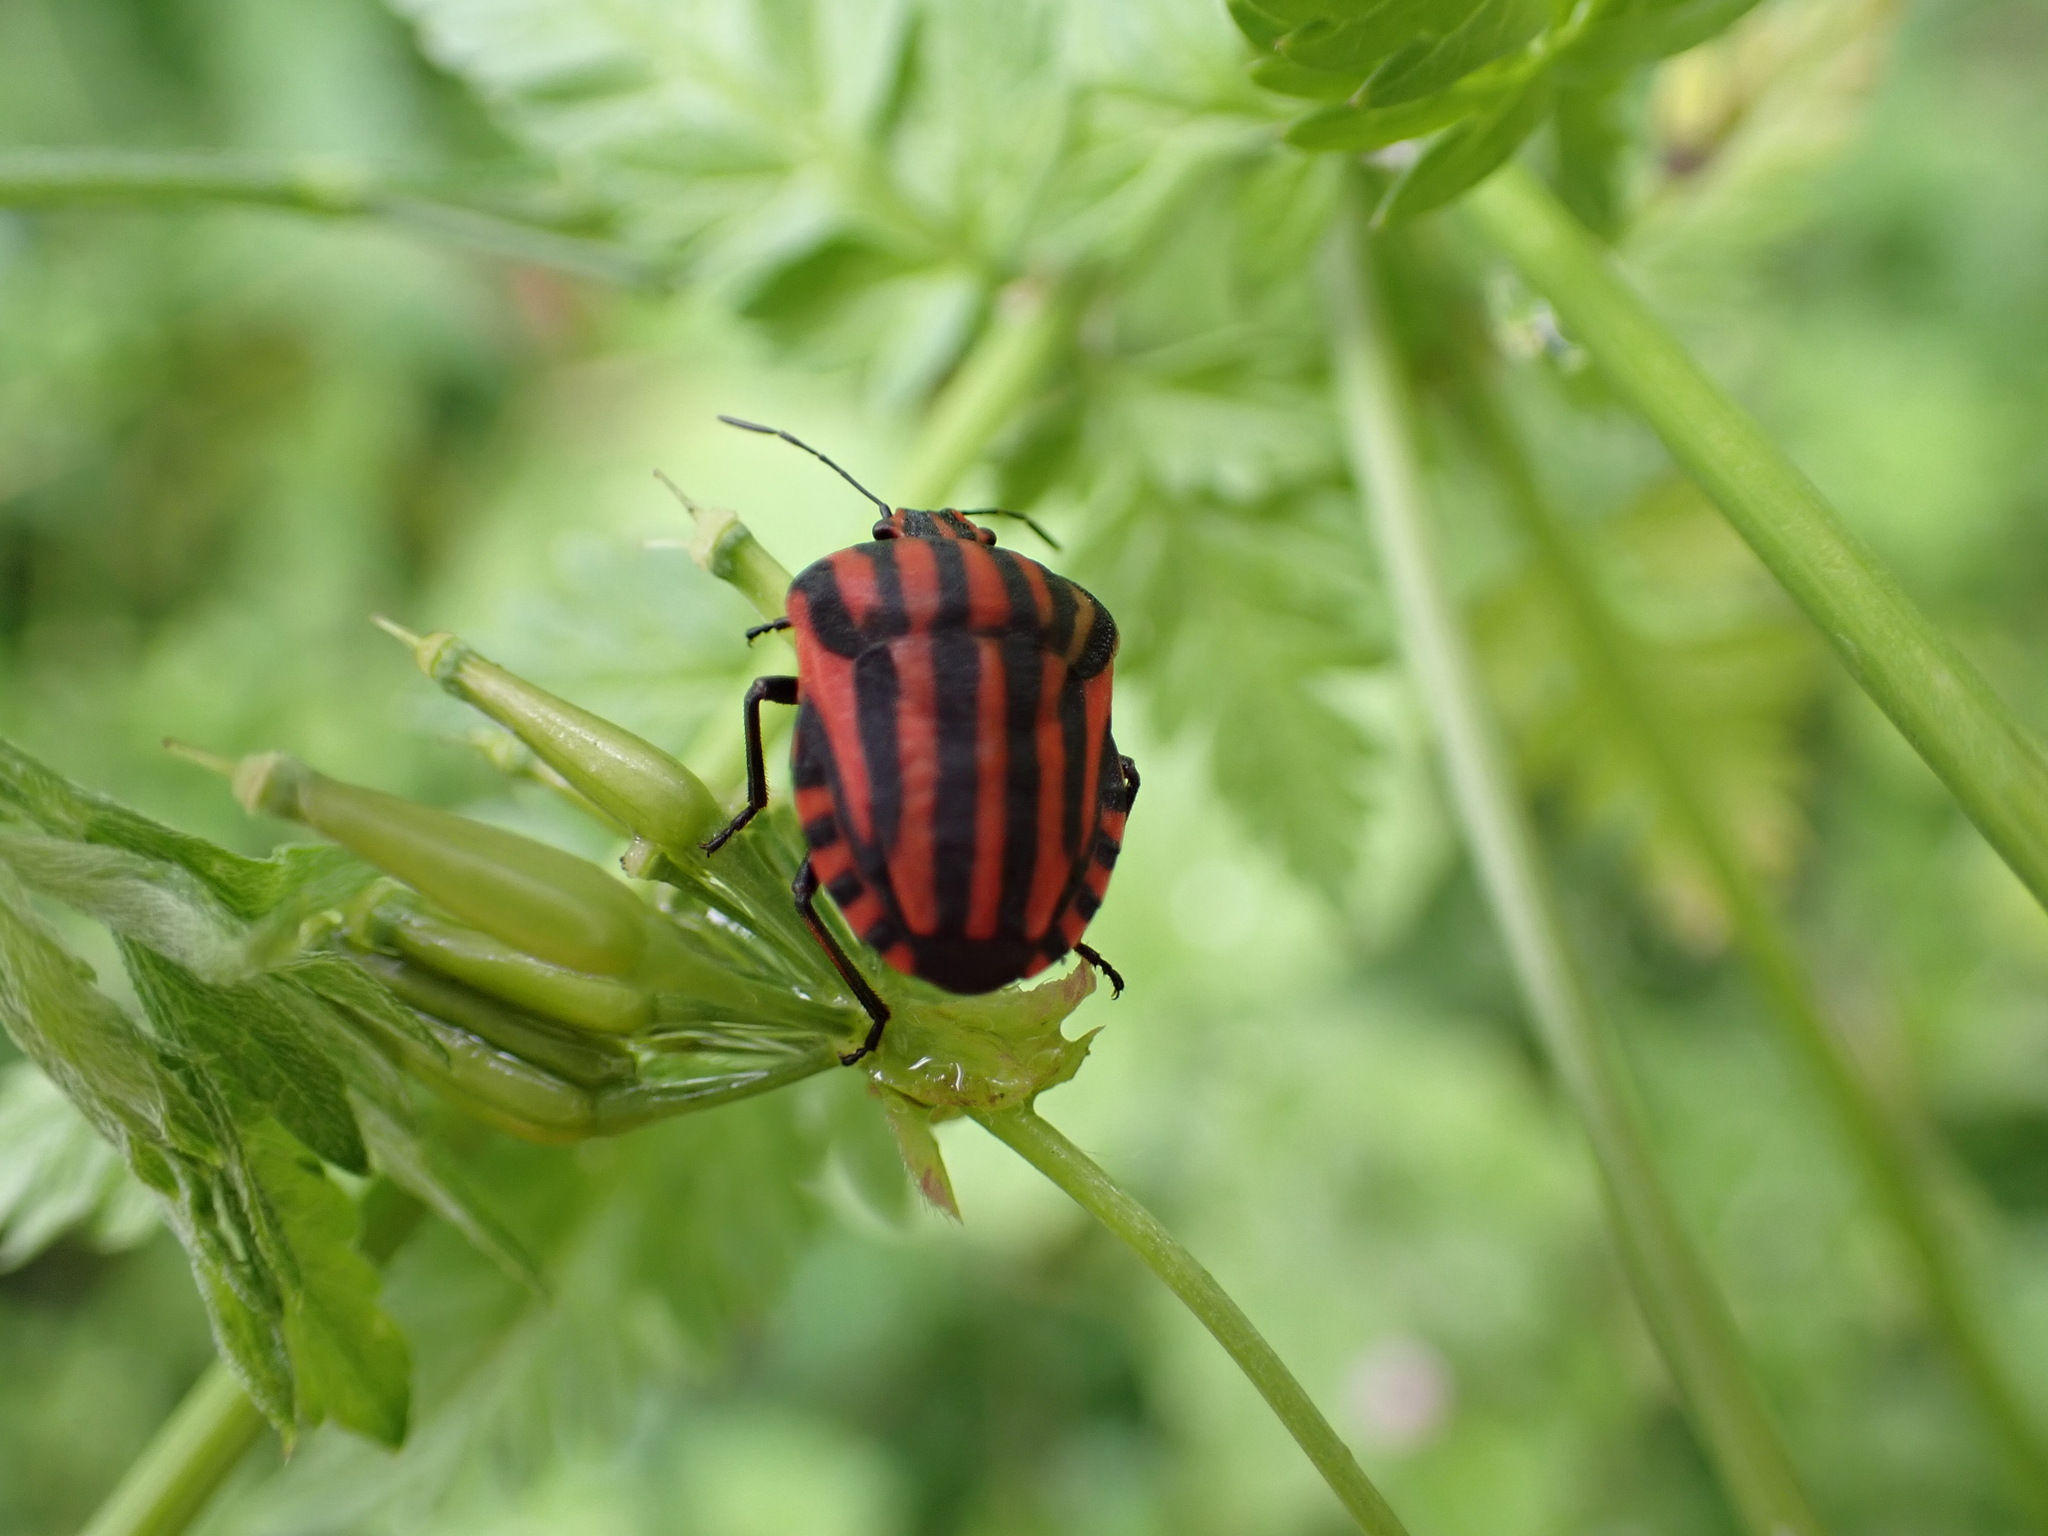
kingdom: Animalia
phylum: Arthropoda
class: Insecta
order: Hemiptera
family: Pentatomidae
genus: Graphosoma
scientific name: Graphosoma italicum
